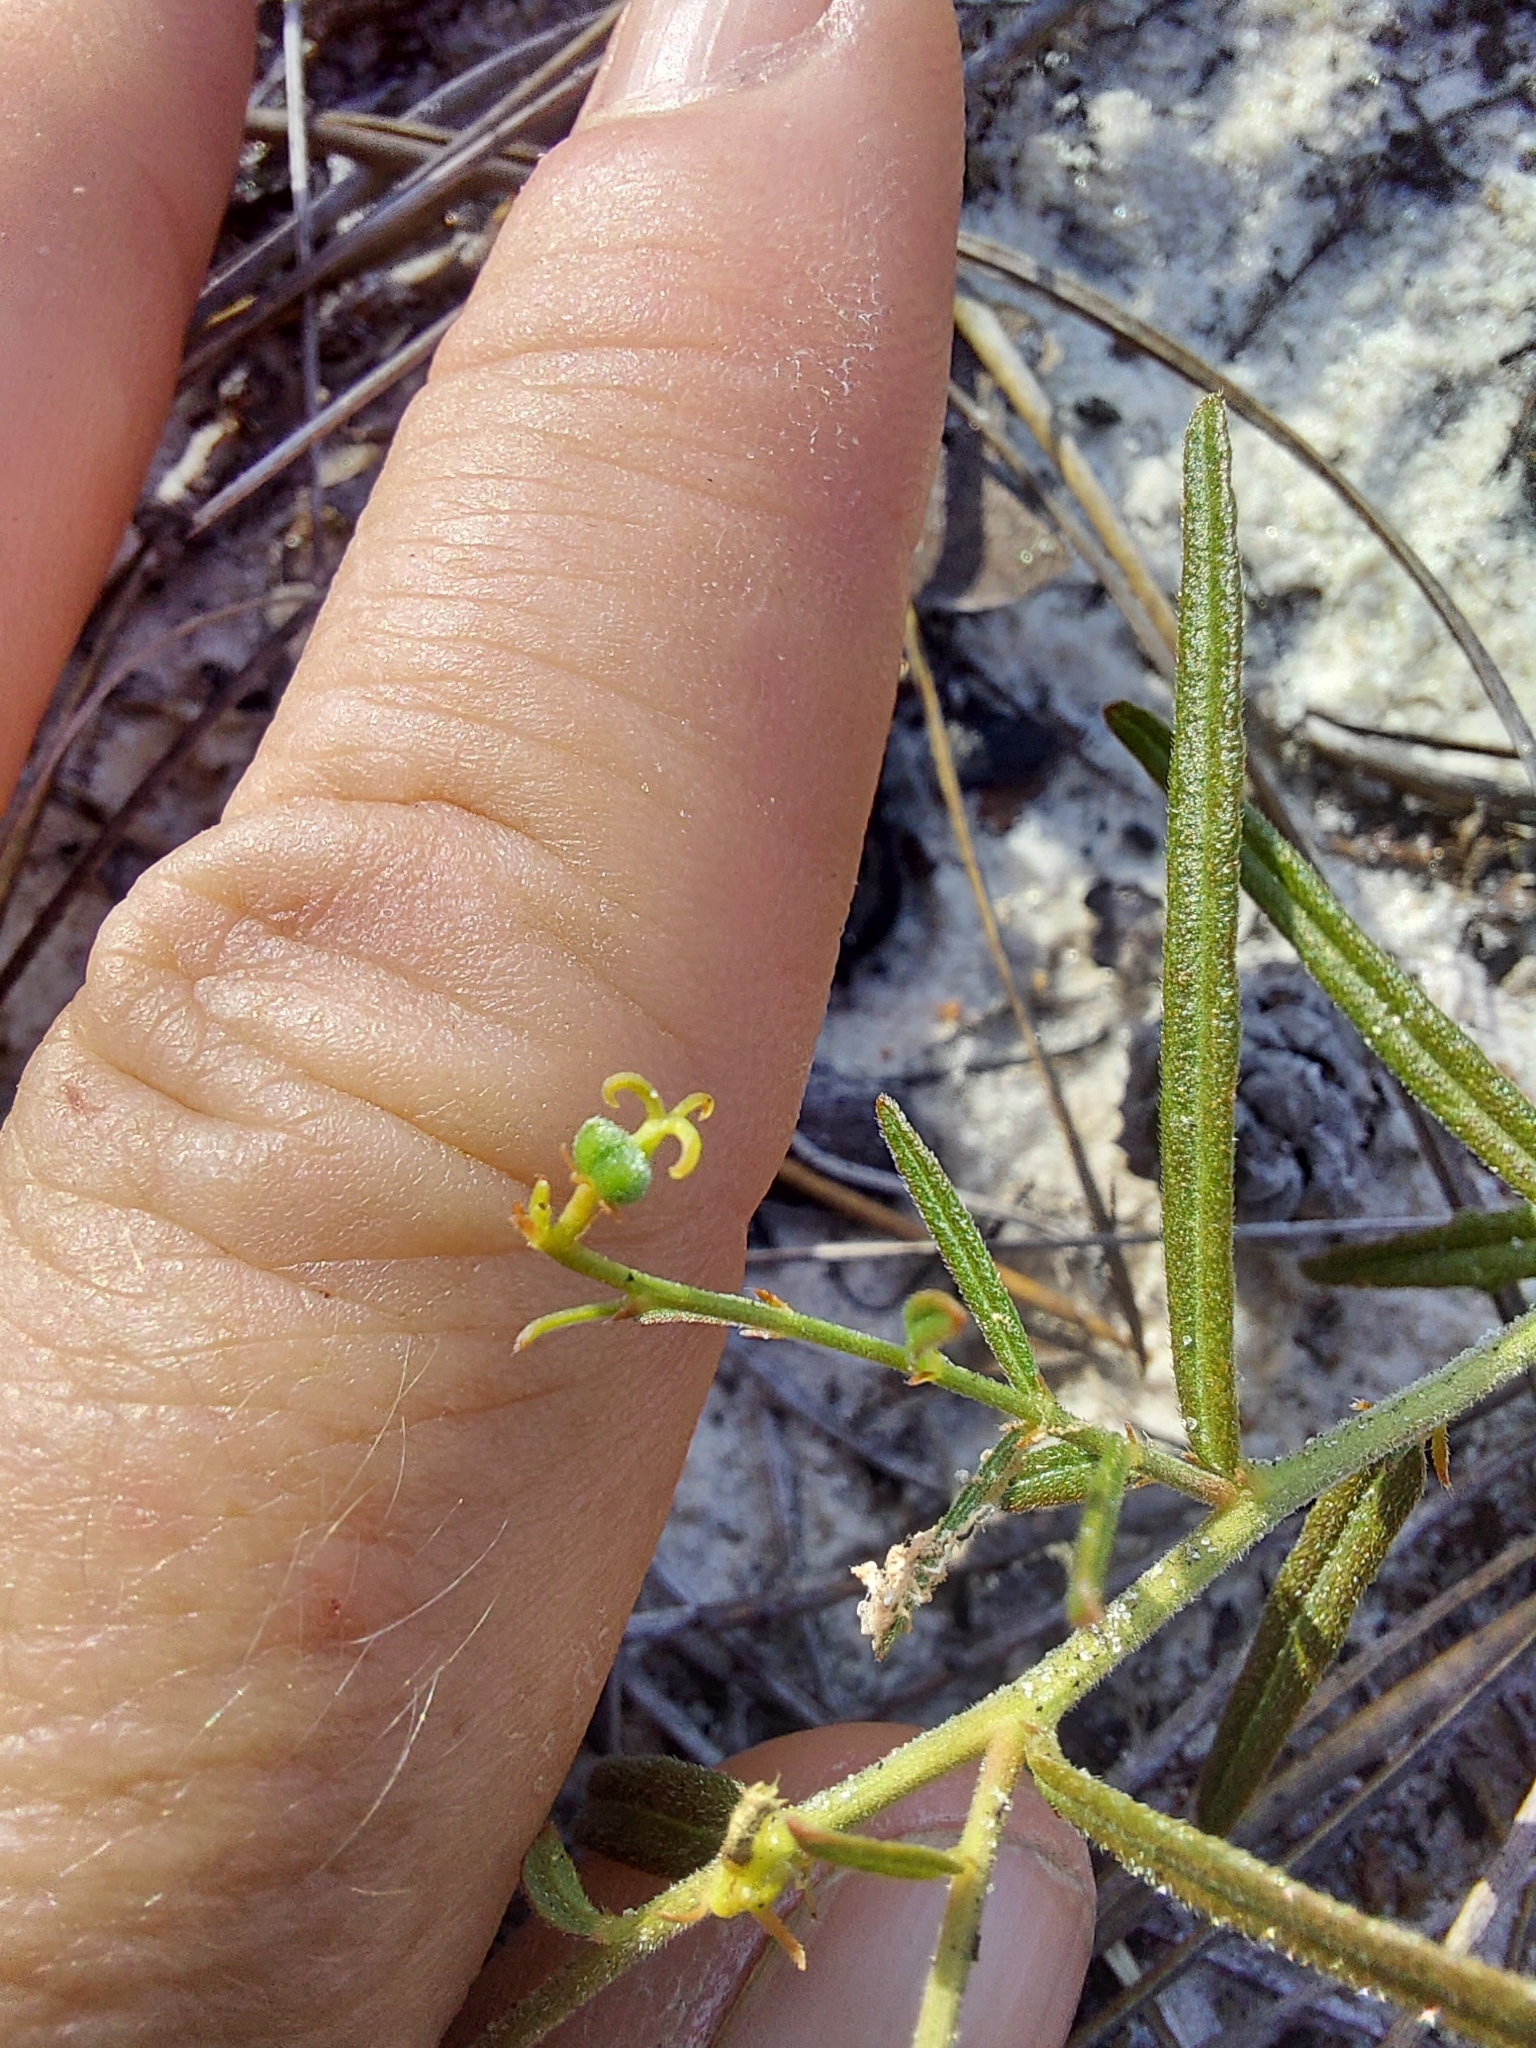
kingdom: Plantae
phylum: Tracheophyta
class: Magnoliopsida
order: Malpighiales
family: Euphorbiaceae
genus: Tragia
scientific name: Tragia urens
